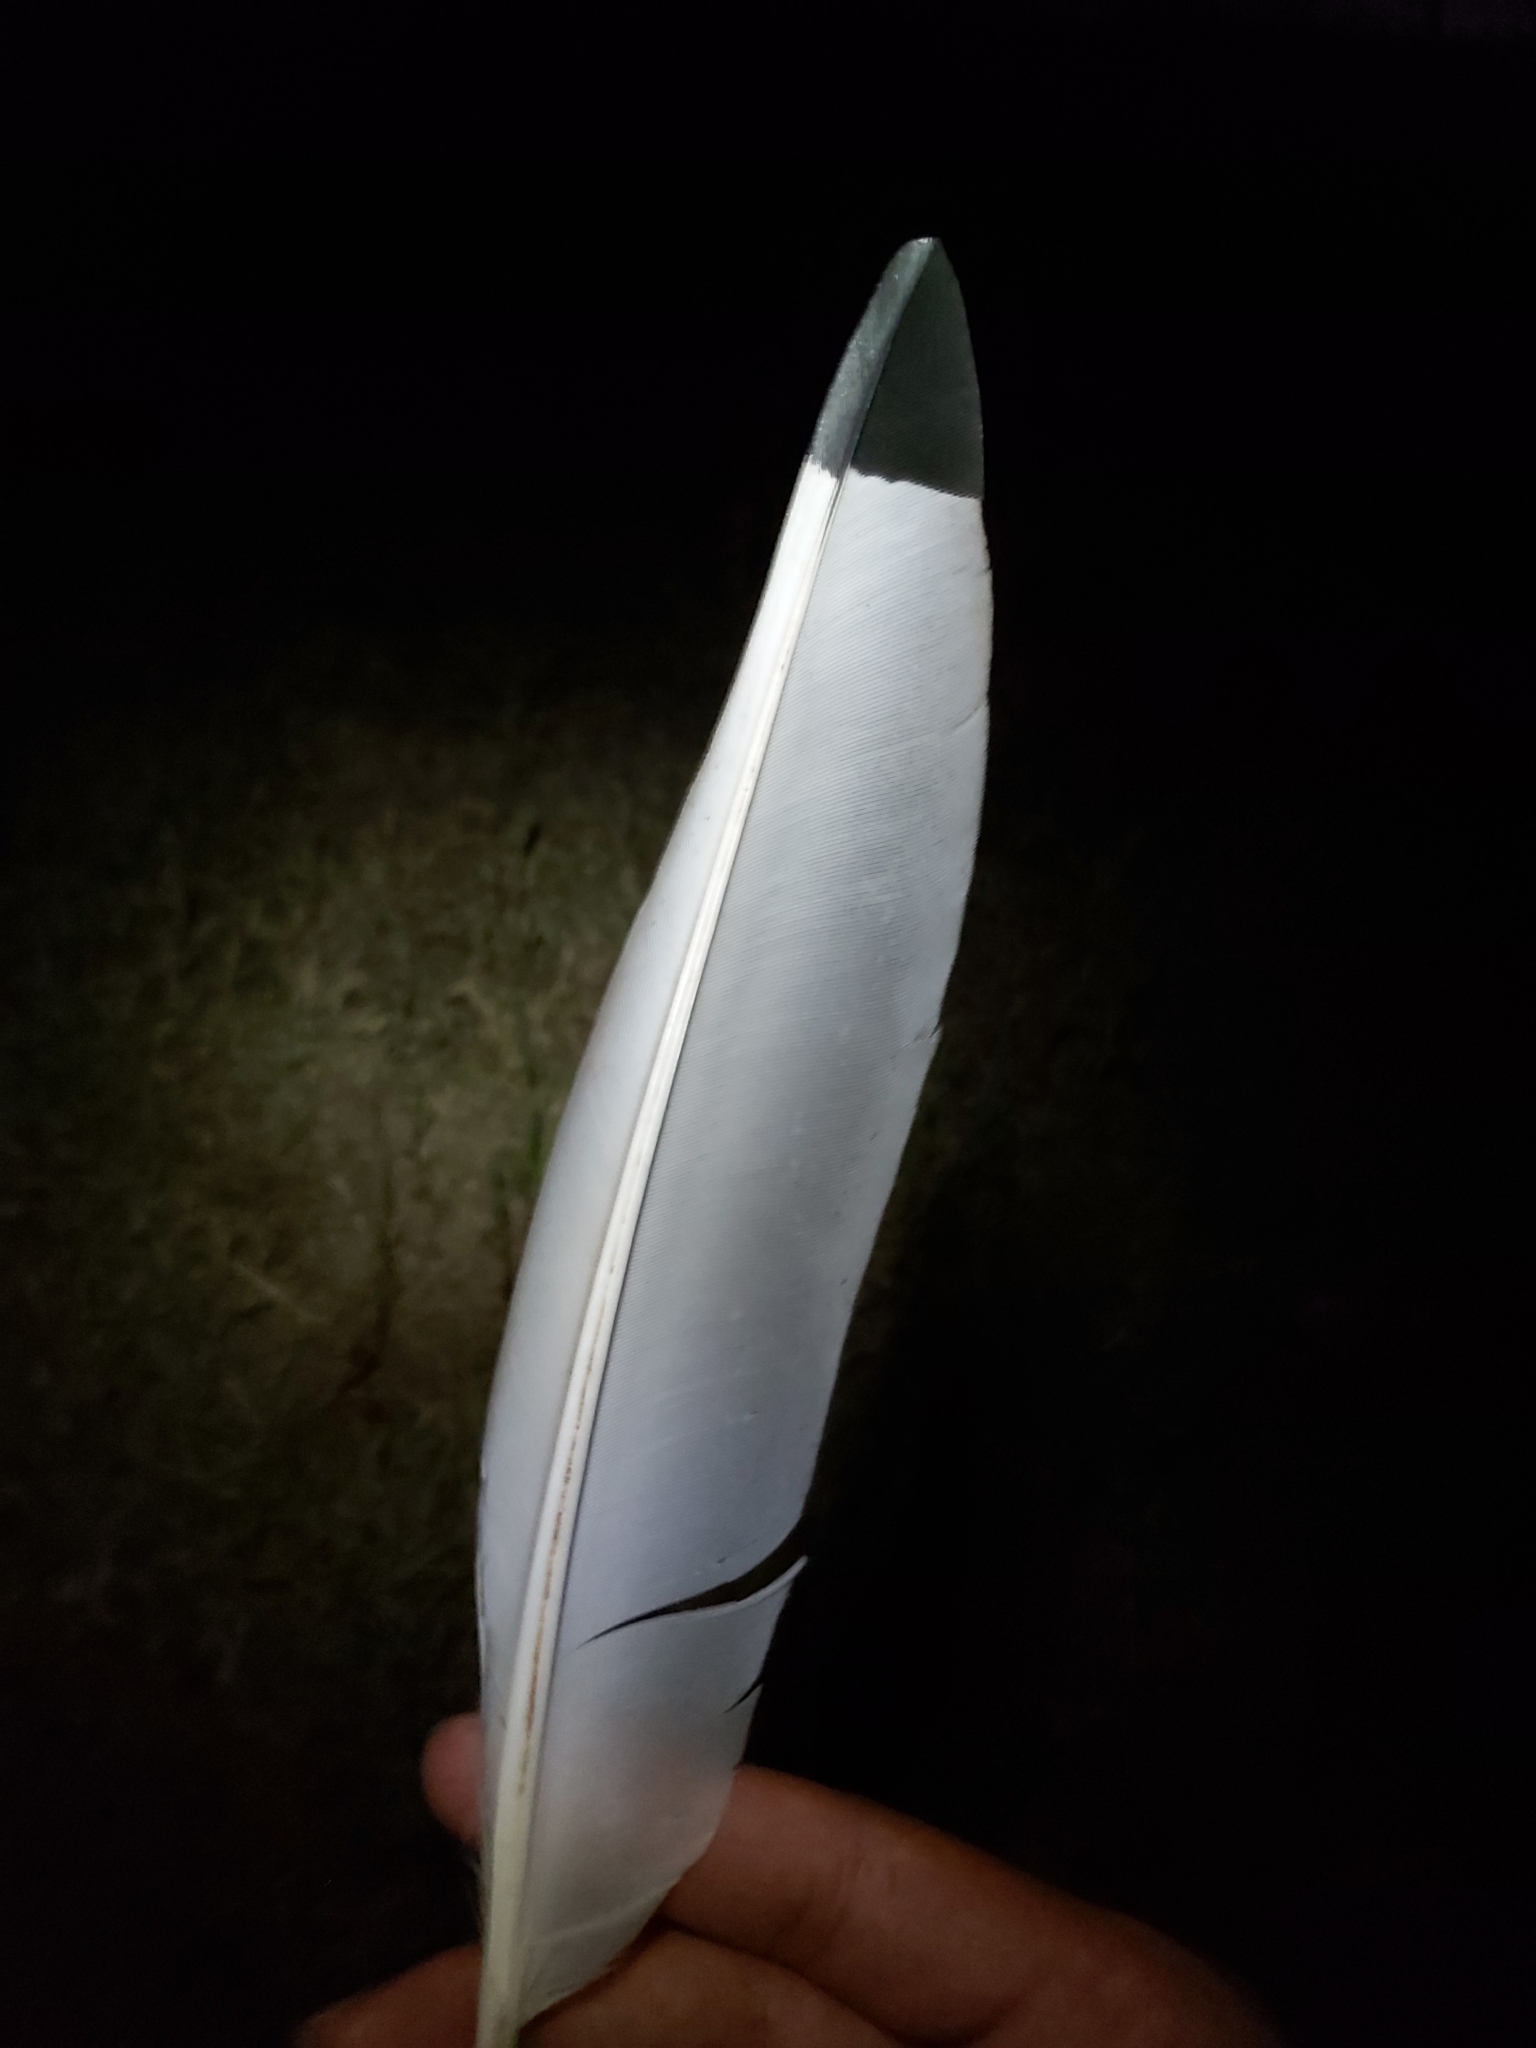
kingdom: Animalia
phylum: Chordata
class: Aves
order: Pelecaniformes
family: Threskiornithidae
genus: Threskiornis
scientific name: Threskiornis molucca
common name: Australian white ibis
